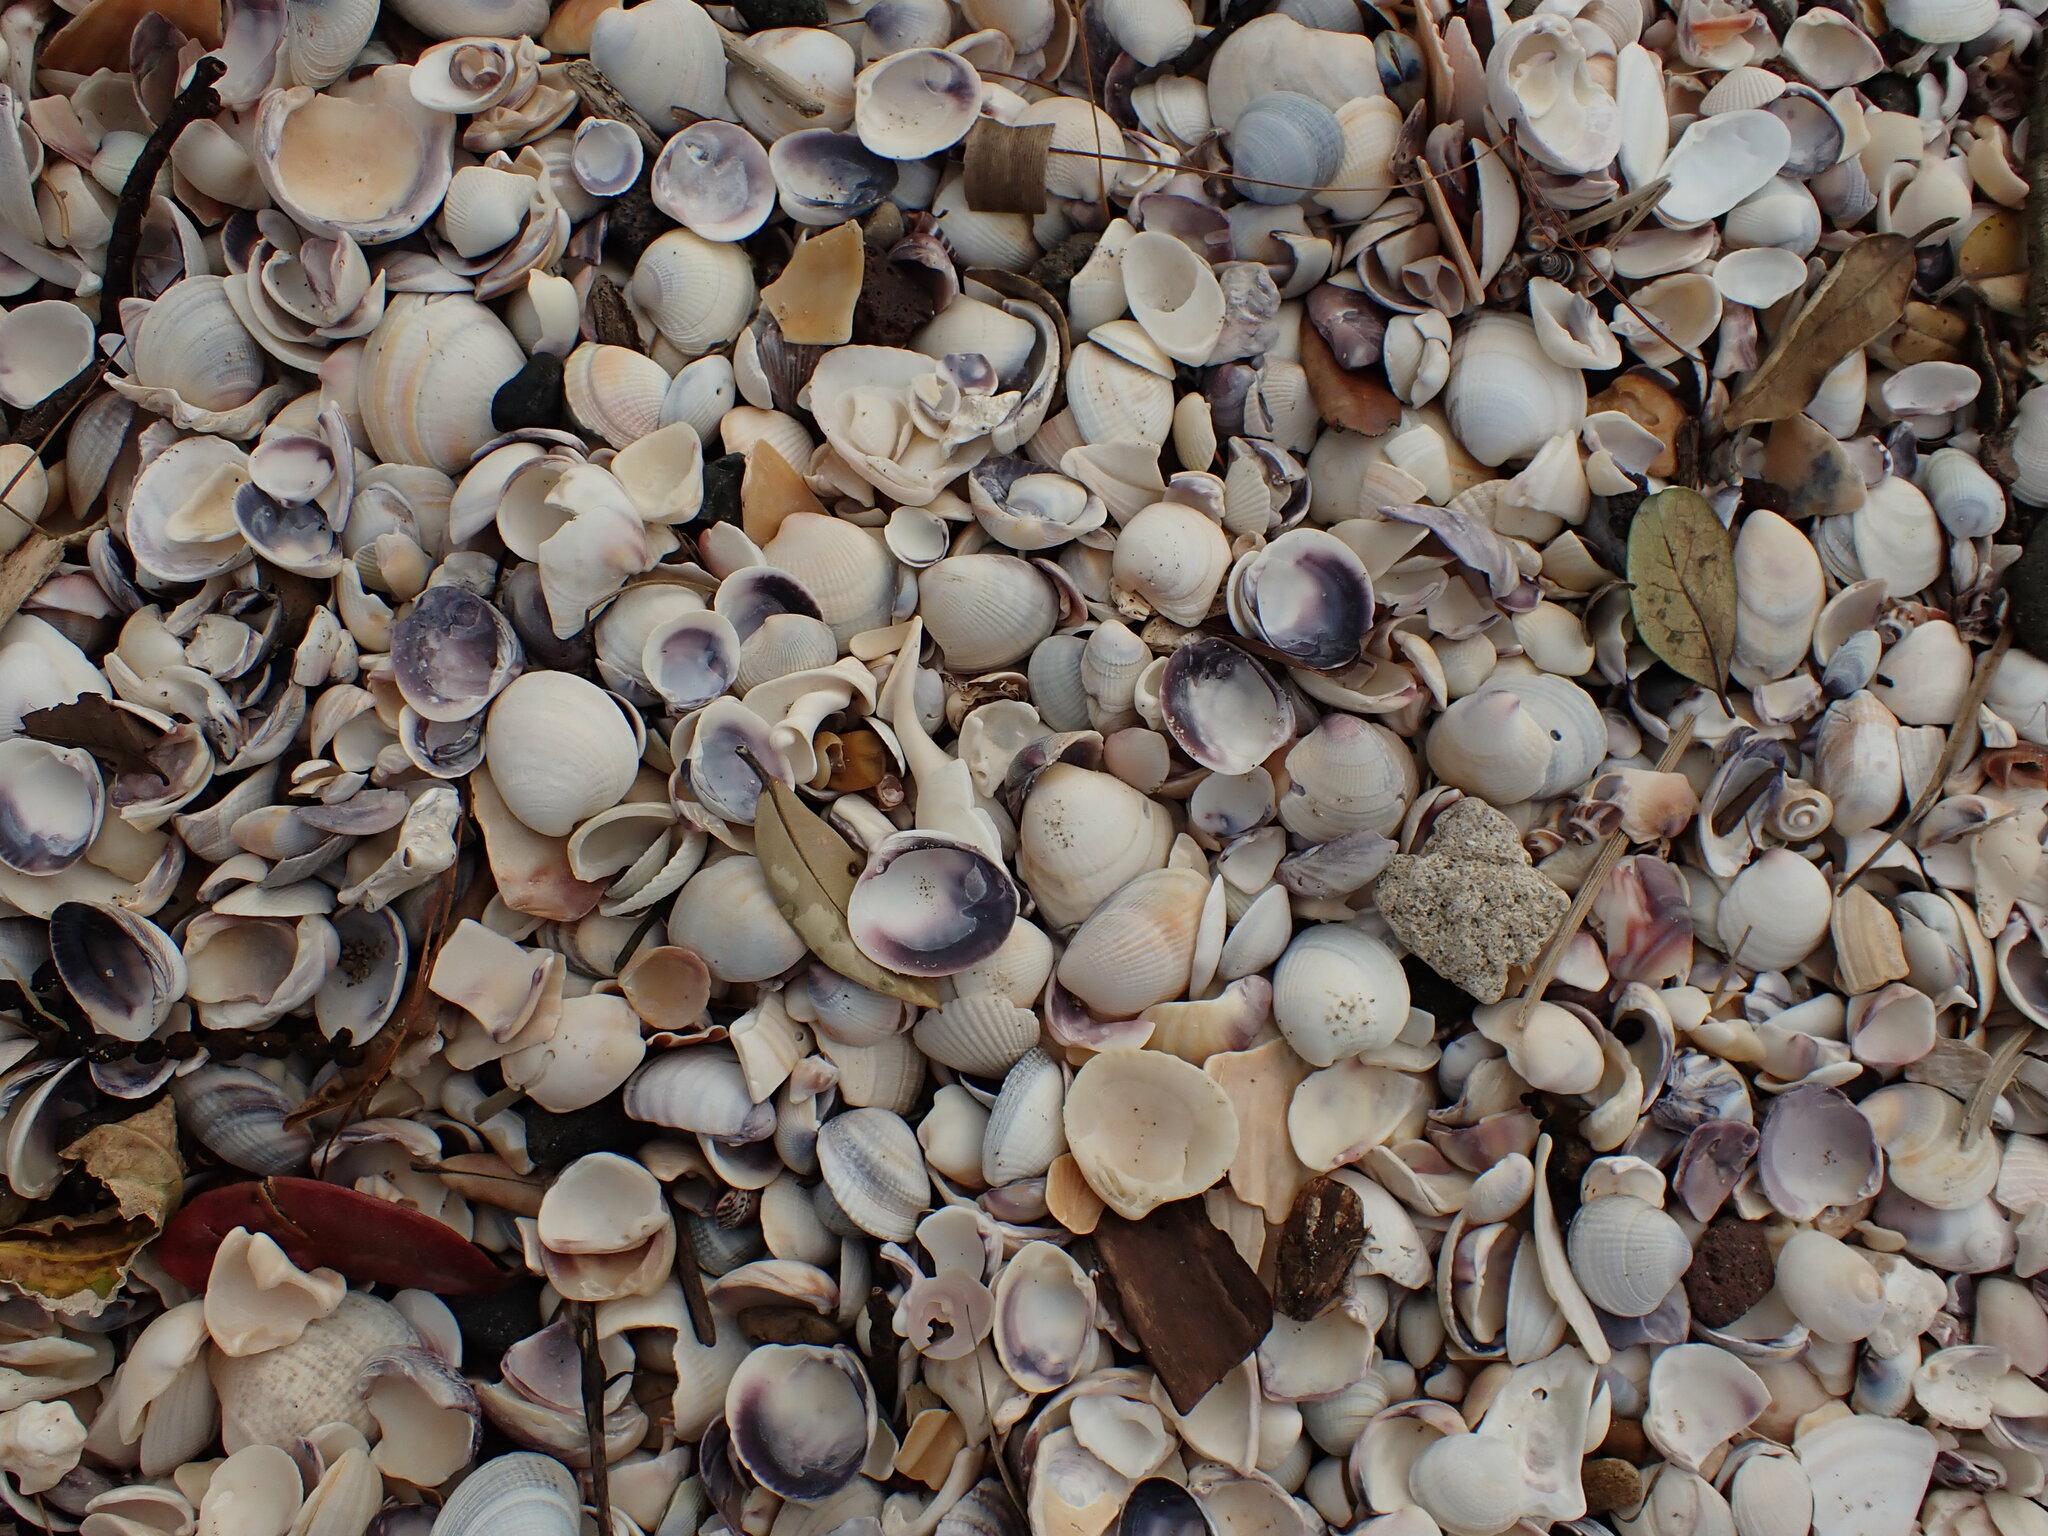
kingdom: Animalia
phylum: Mollusca
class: Bivalvia
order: Venerida
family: Veneridae
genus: Austrovenus
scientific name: Austrovenus stutchburyi
